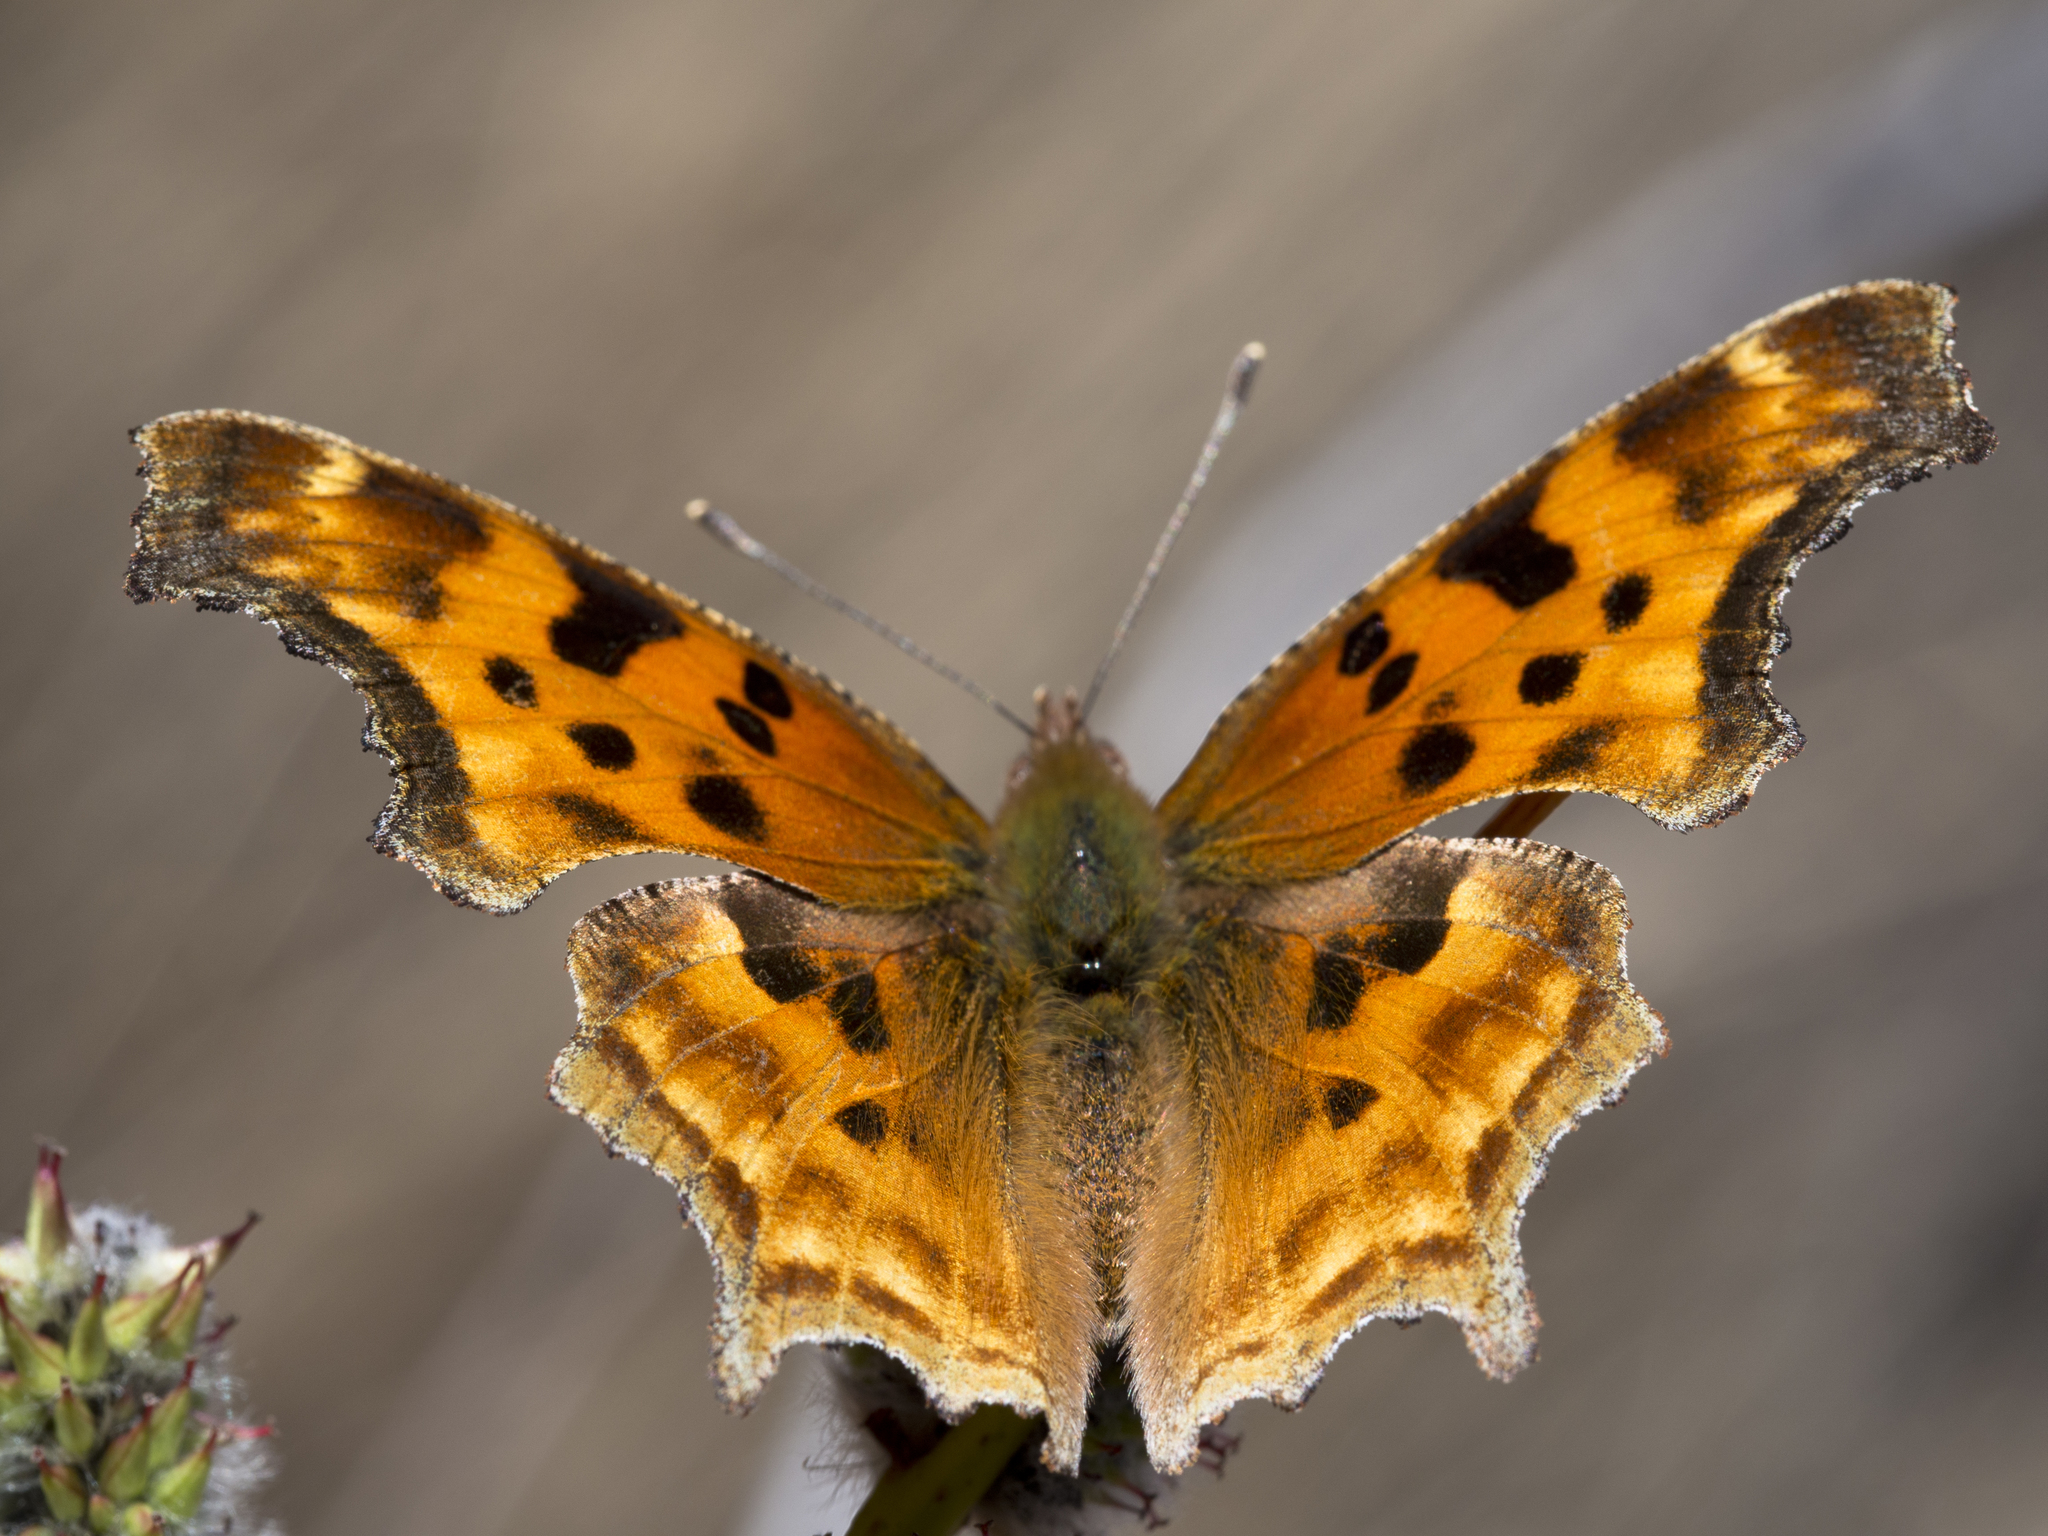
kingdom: Animalia
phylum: Arthropoda
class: Insecta
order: Lepidoptera
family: Nymphalidae
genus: Polygonia
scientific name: Polygonia satyrus
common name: Satyr angle wing
